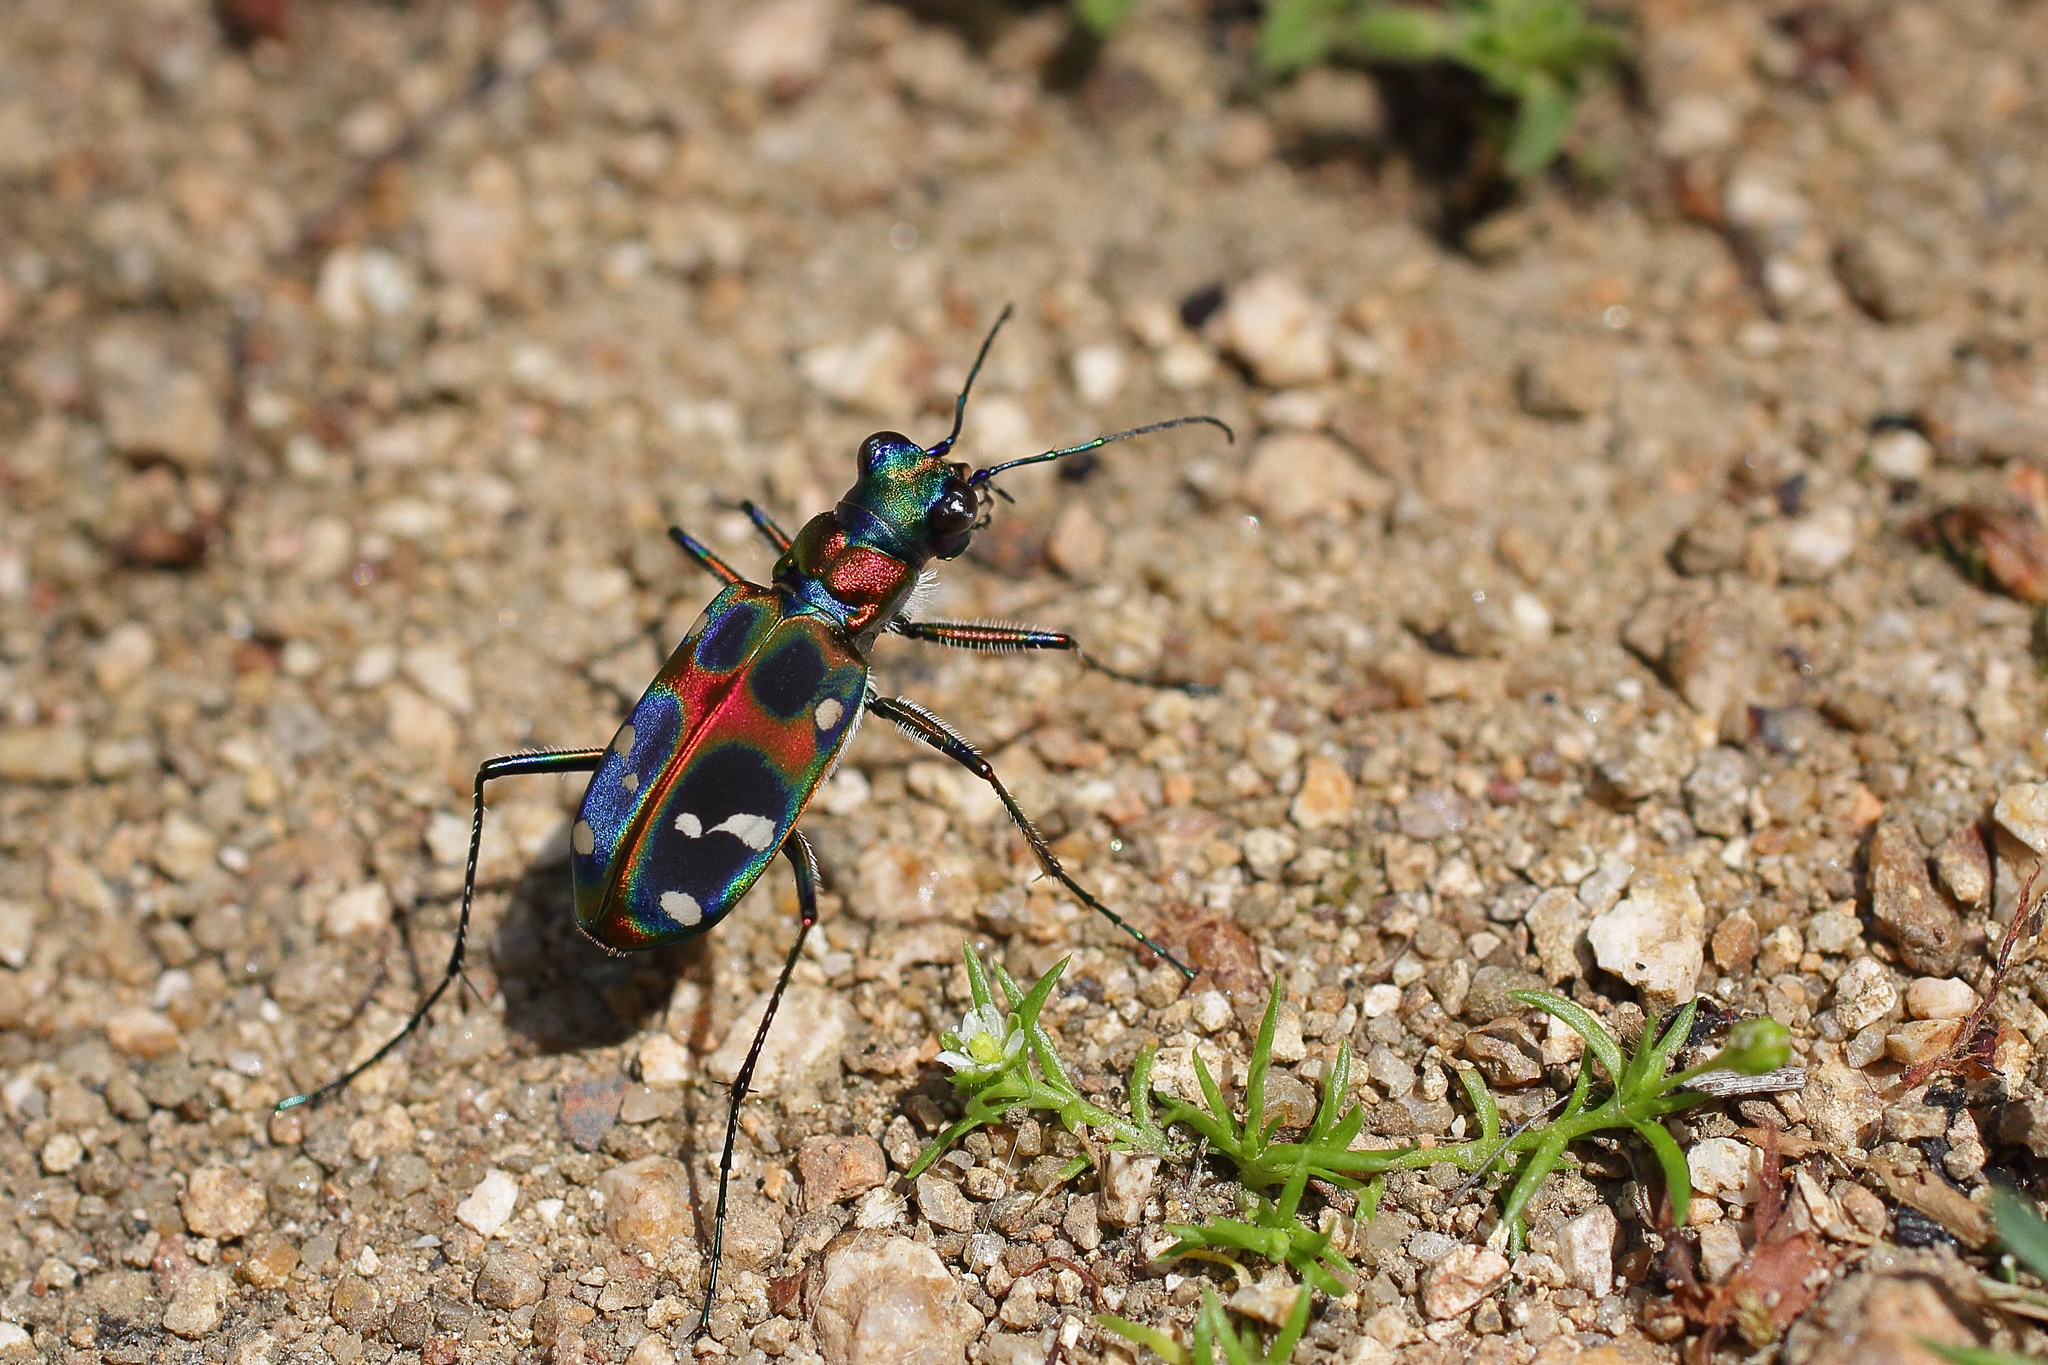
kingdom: Animalia
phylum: Arthropoda
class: Insecta
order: Coleoptera
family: Carabidae
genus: Cicindela
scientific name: Cicindela chinensis
